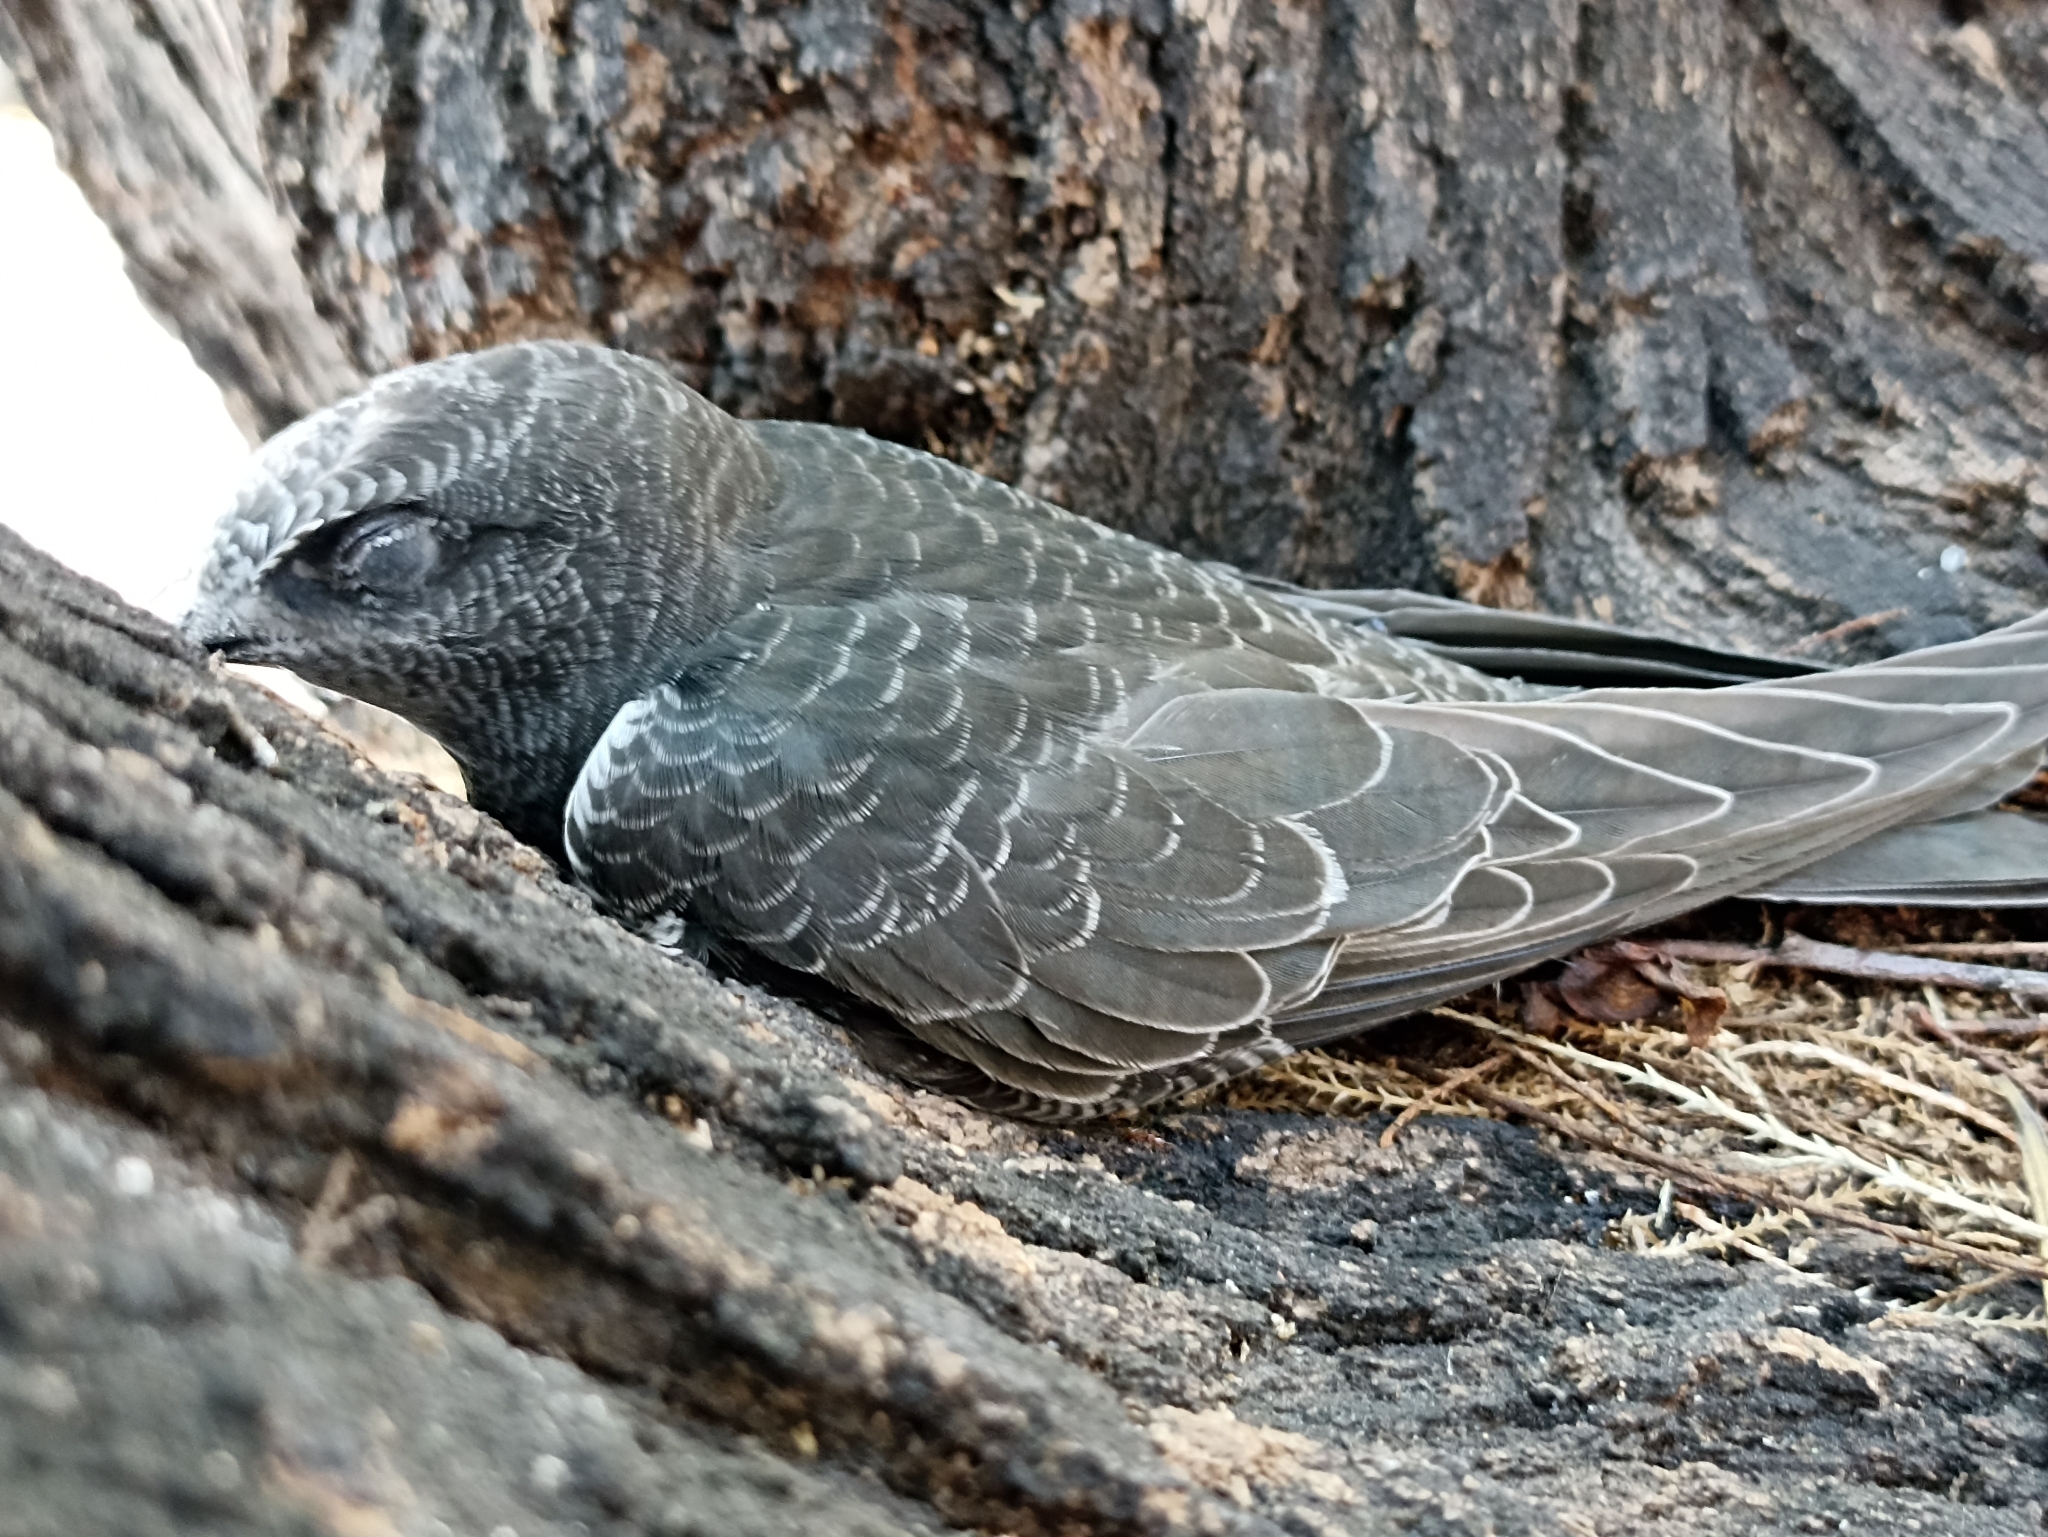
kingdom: Animalia
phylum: Chordata
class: Aves
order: Apodiformes
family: Apodidae
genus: Apus
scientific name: Apus apus
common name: Common swift
